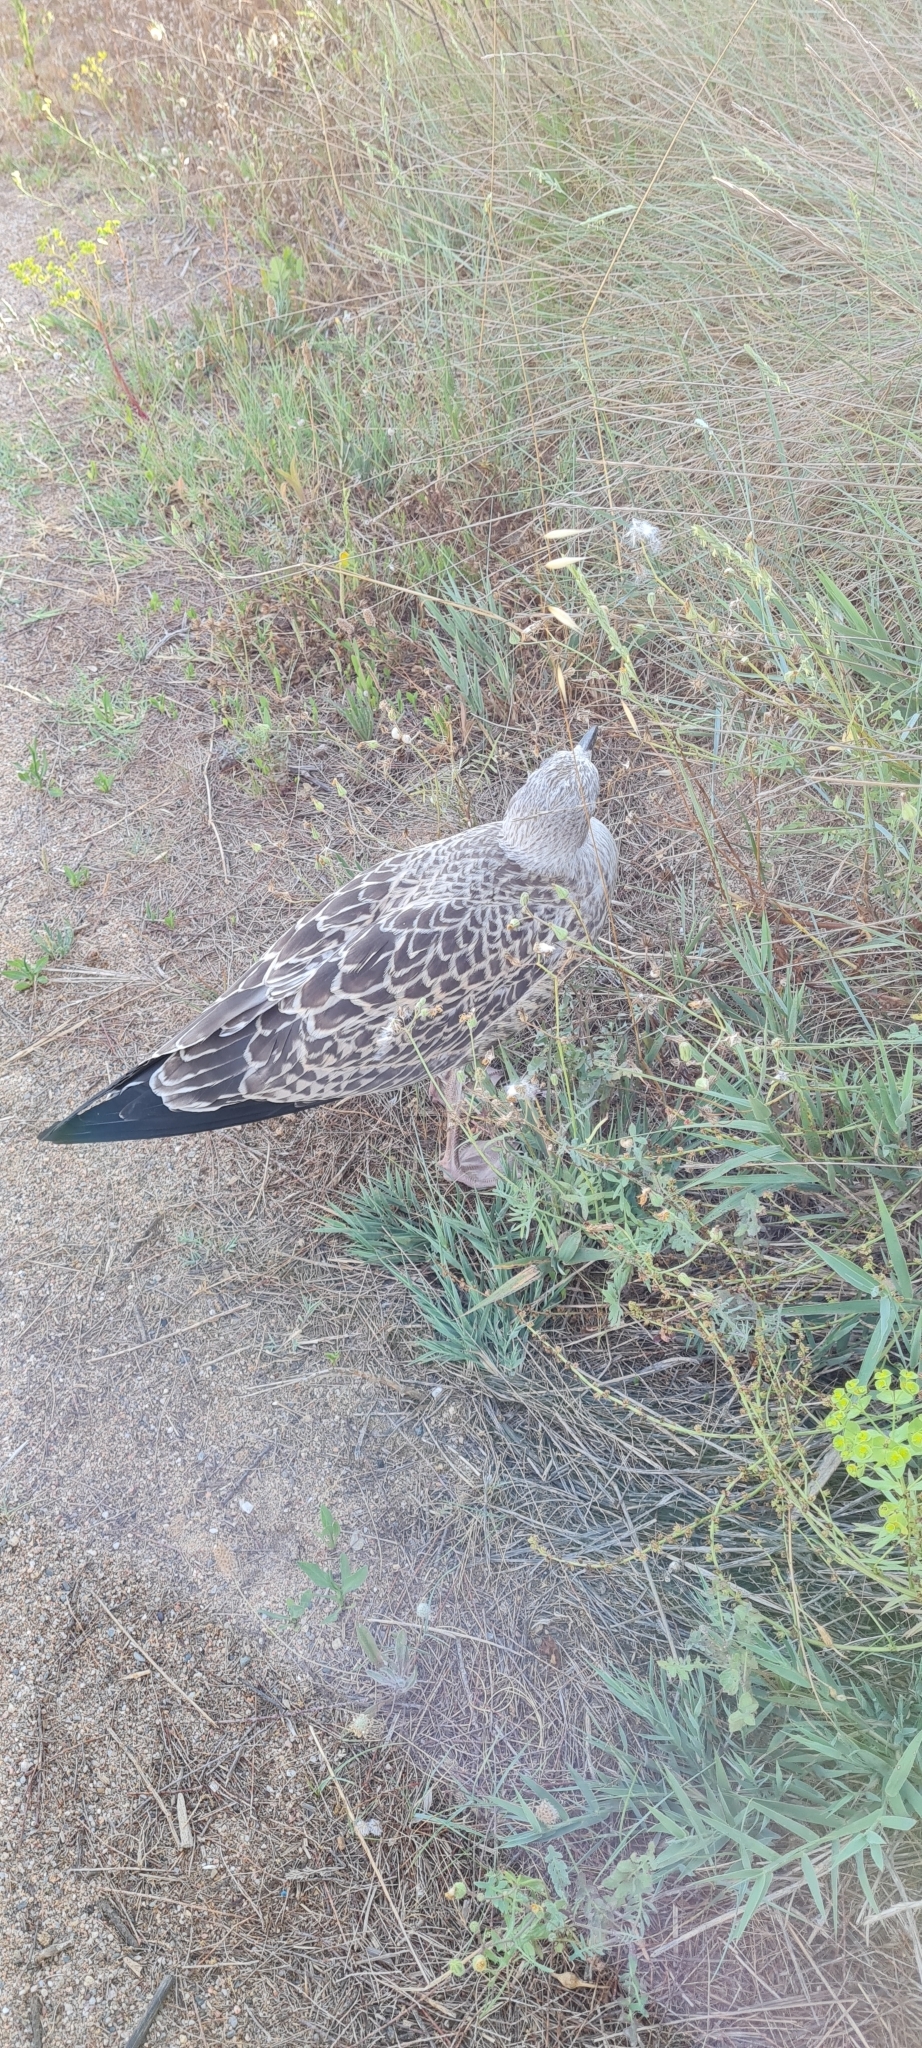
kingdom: Animalia
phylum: Chordata
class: Aves
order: Charadriiformes
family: Laridae
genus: Larus
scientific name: Larus michahellis
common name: Yellow-legged gull
